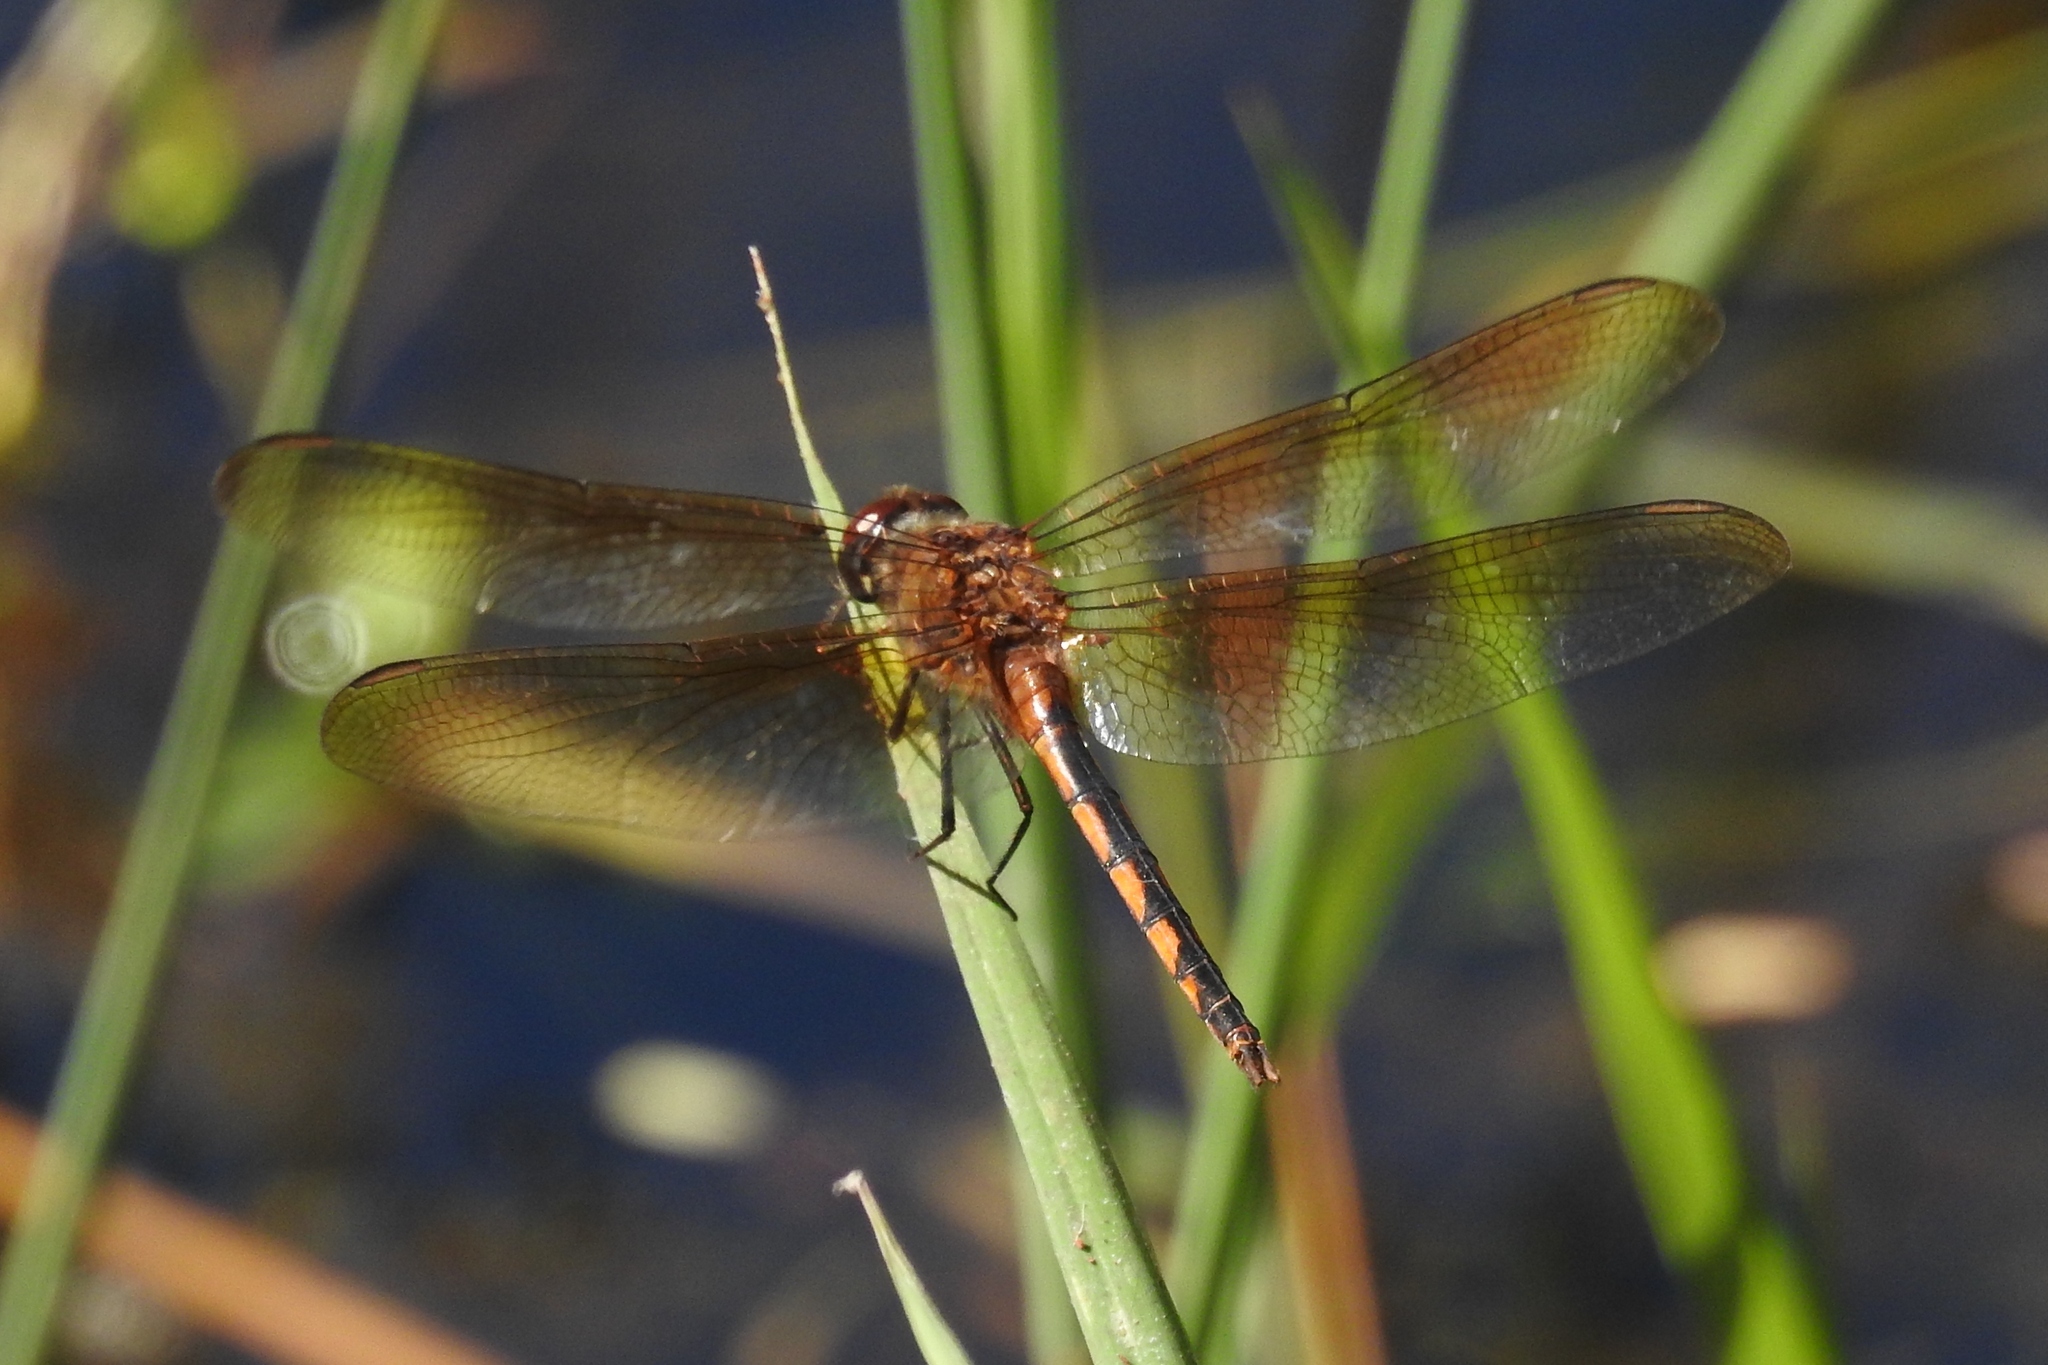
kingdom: Animalia
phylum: Arthropoda
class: Insecta
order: Odonata
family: Libellulidae
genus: Brachymesia
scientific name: Brachymesia herbida
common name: Tawny pennant
